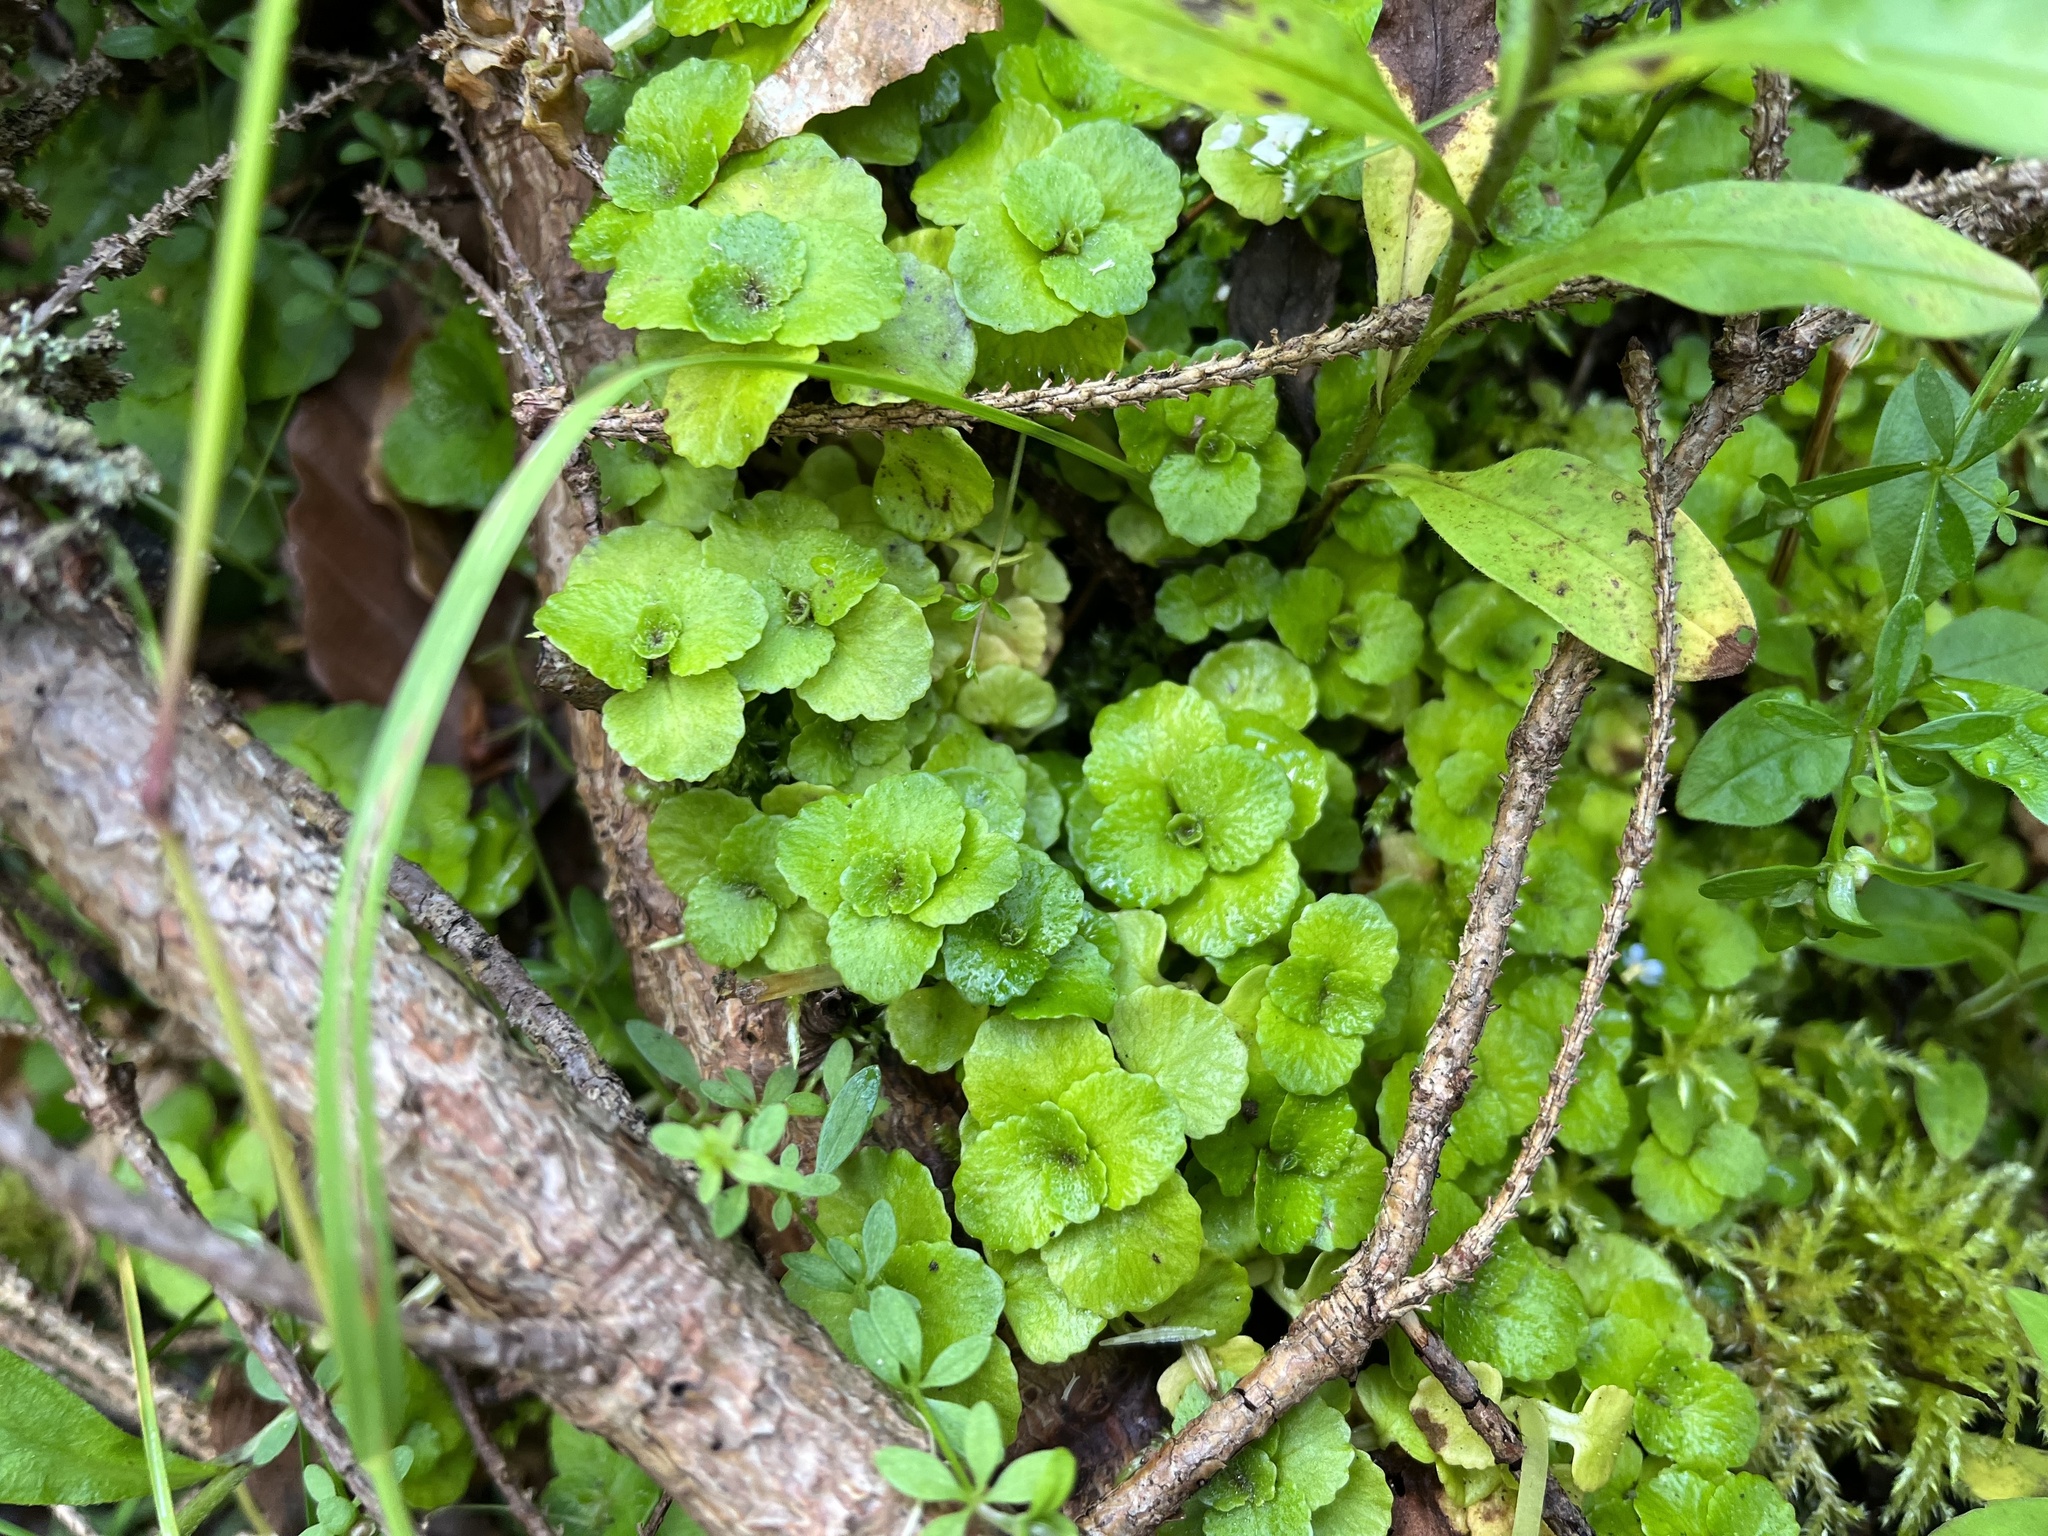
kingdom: Plantae
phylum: Tracheophyta
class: Magnoliopsida
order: Saxifragales
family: Saxifragaceae
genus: Chrysosplenium
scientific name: Chrysosplenium oppositifolium
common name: Opposite-leaved golden-saxifrage
